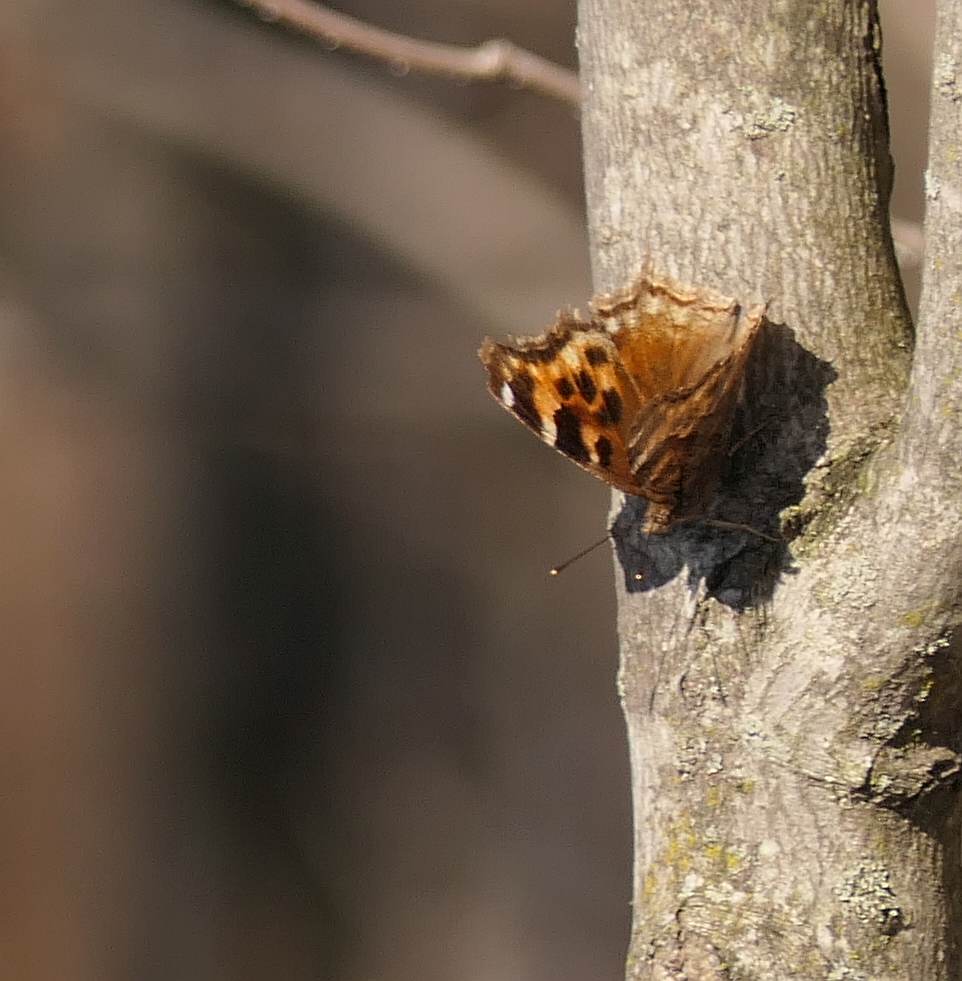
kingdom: Animalia
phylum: Arthropoda
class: Insecta
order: Lepidoptera
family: Nymphalidae
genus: Polygonia
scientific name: Polygonia vaualbum
